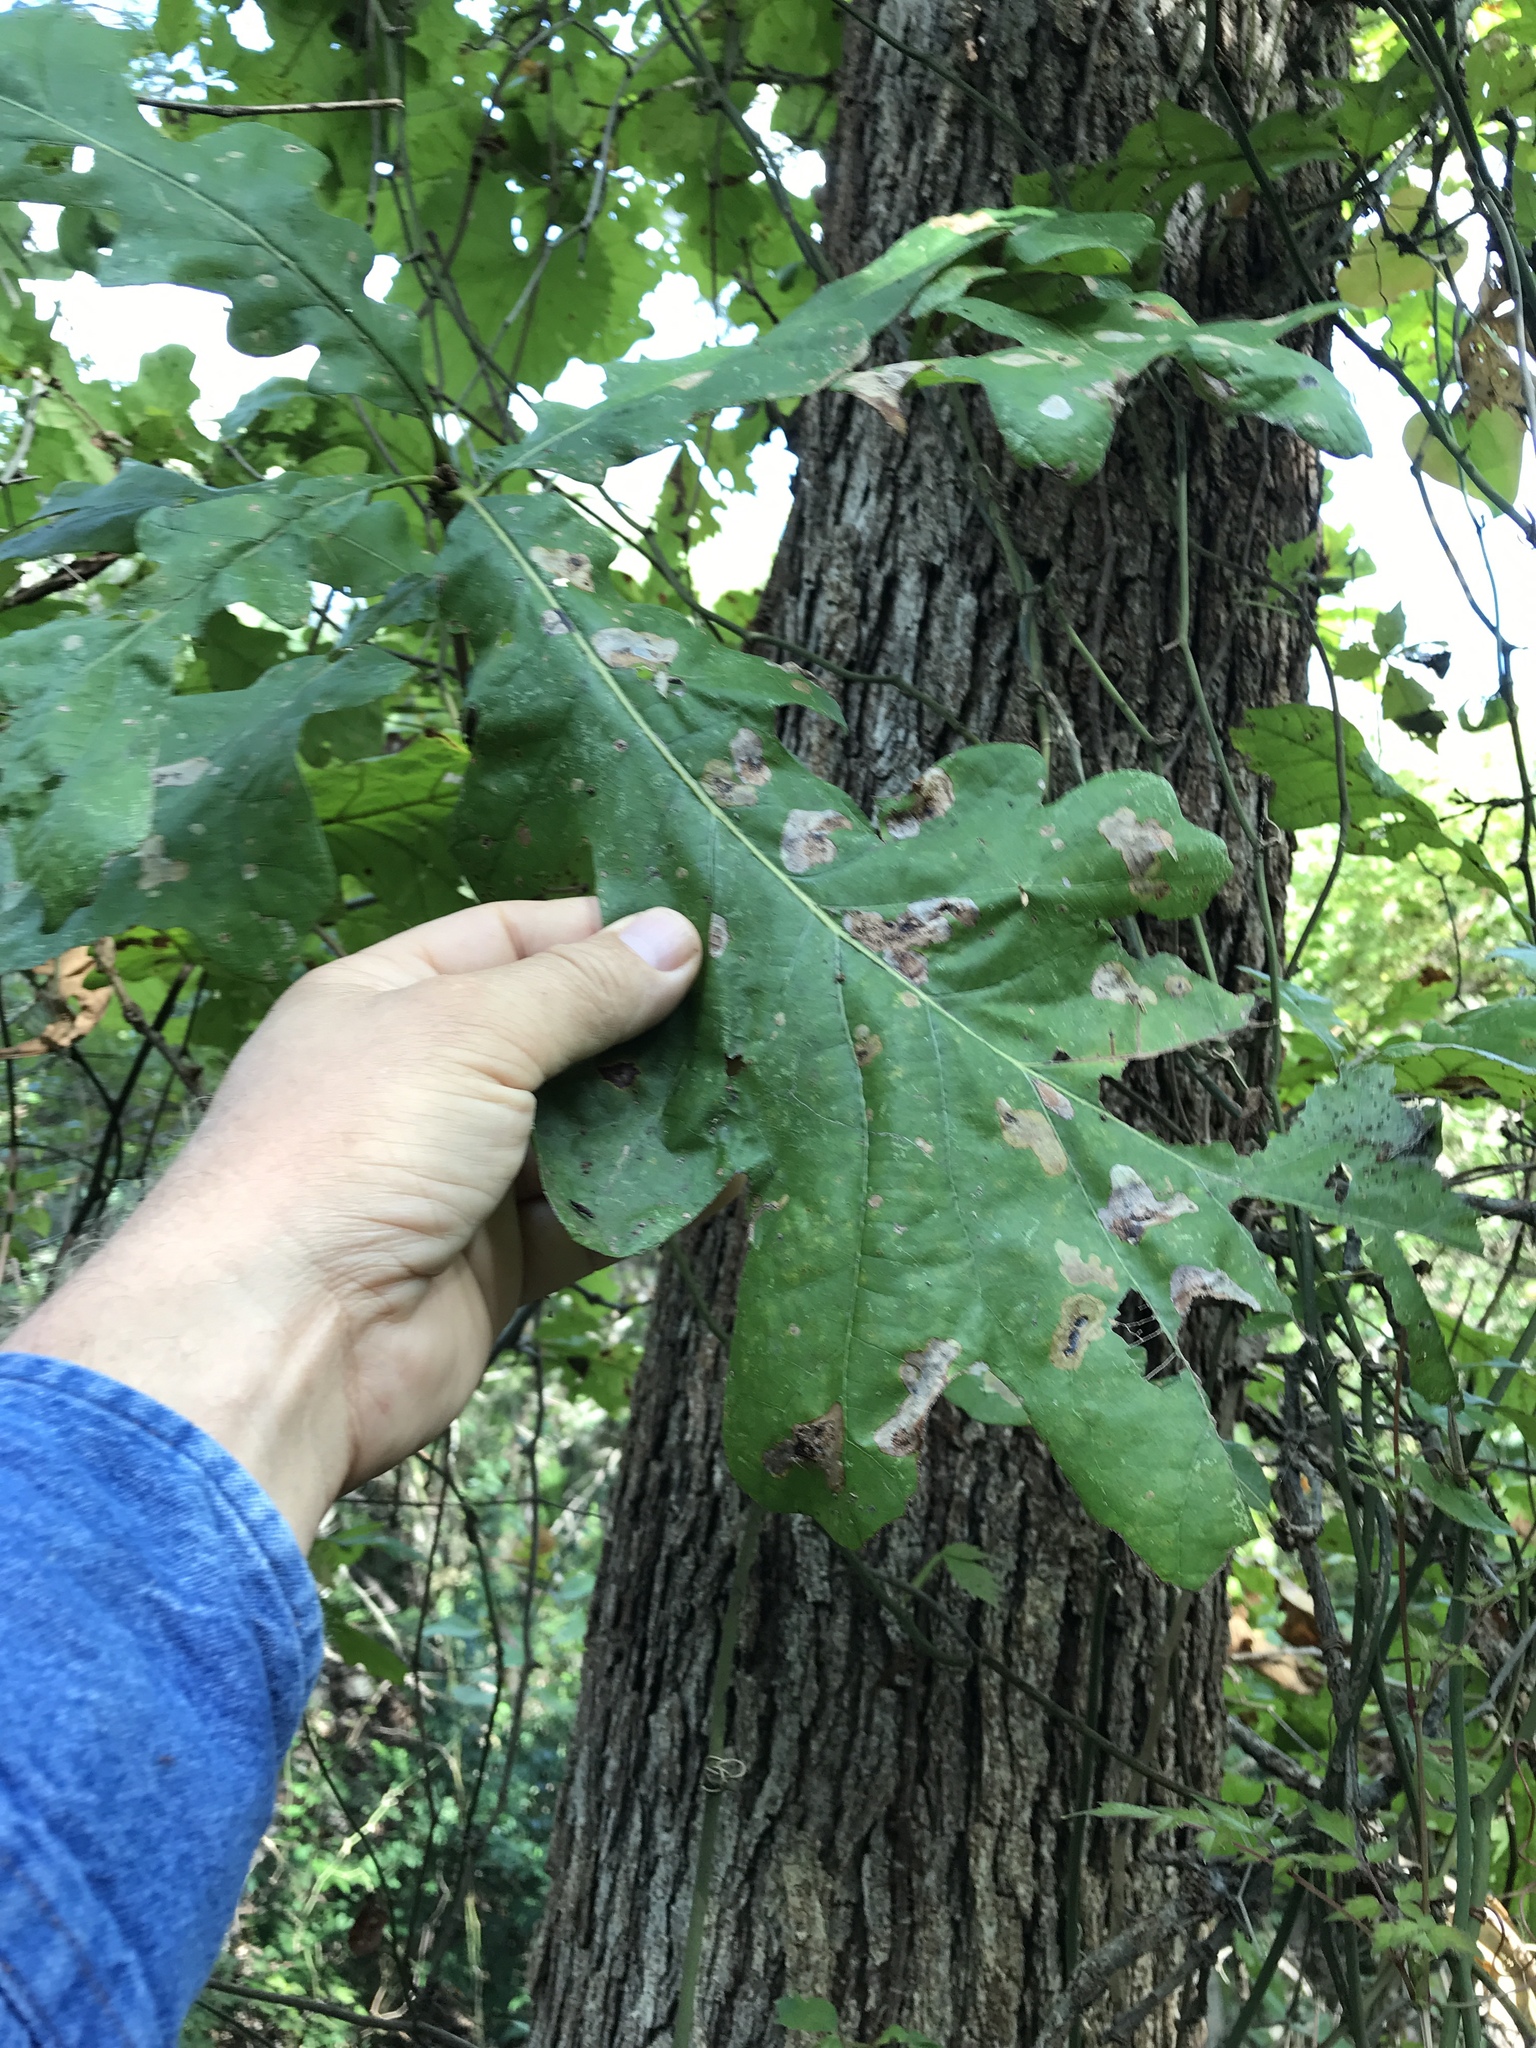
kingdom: Plantae
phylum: Tracheophyta
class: Magnoliopsida
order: Fagales
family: Fagaceae
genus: Quercus
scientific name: Quercus macrocarpa
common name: Bur oak
